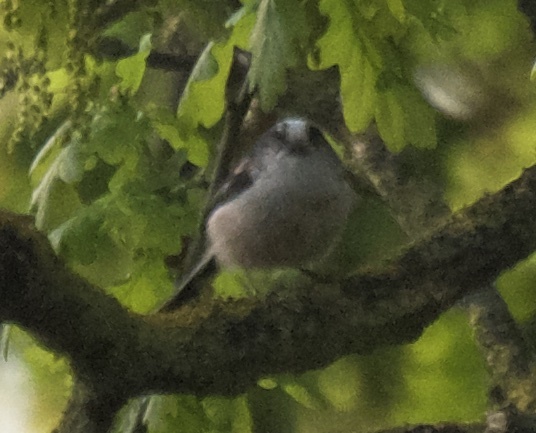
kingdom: Animalia
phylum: Chordata
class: Aves
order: Passeriformes
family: Aegithalidae
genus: Aegithalos
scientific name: Aegithalos caudatus
